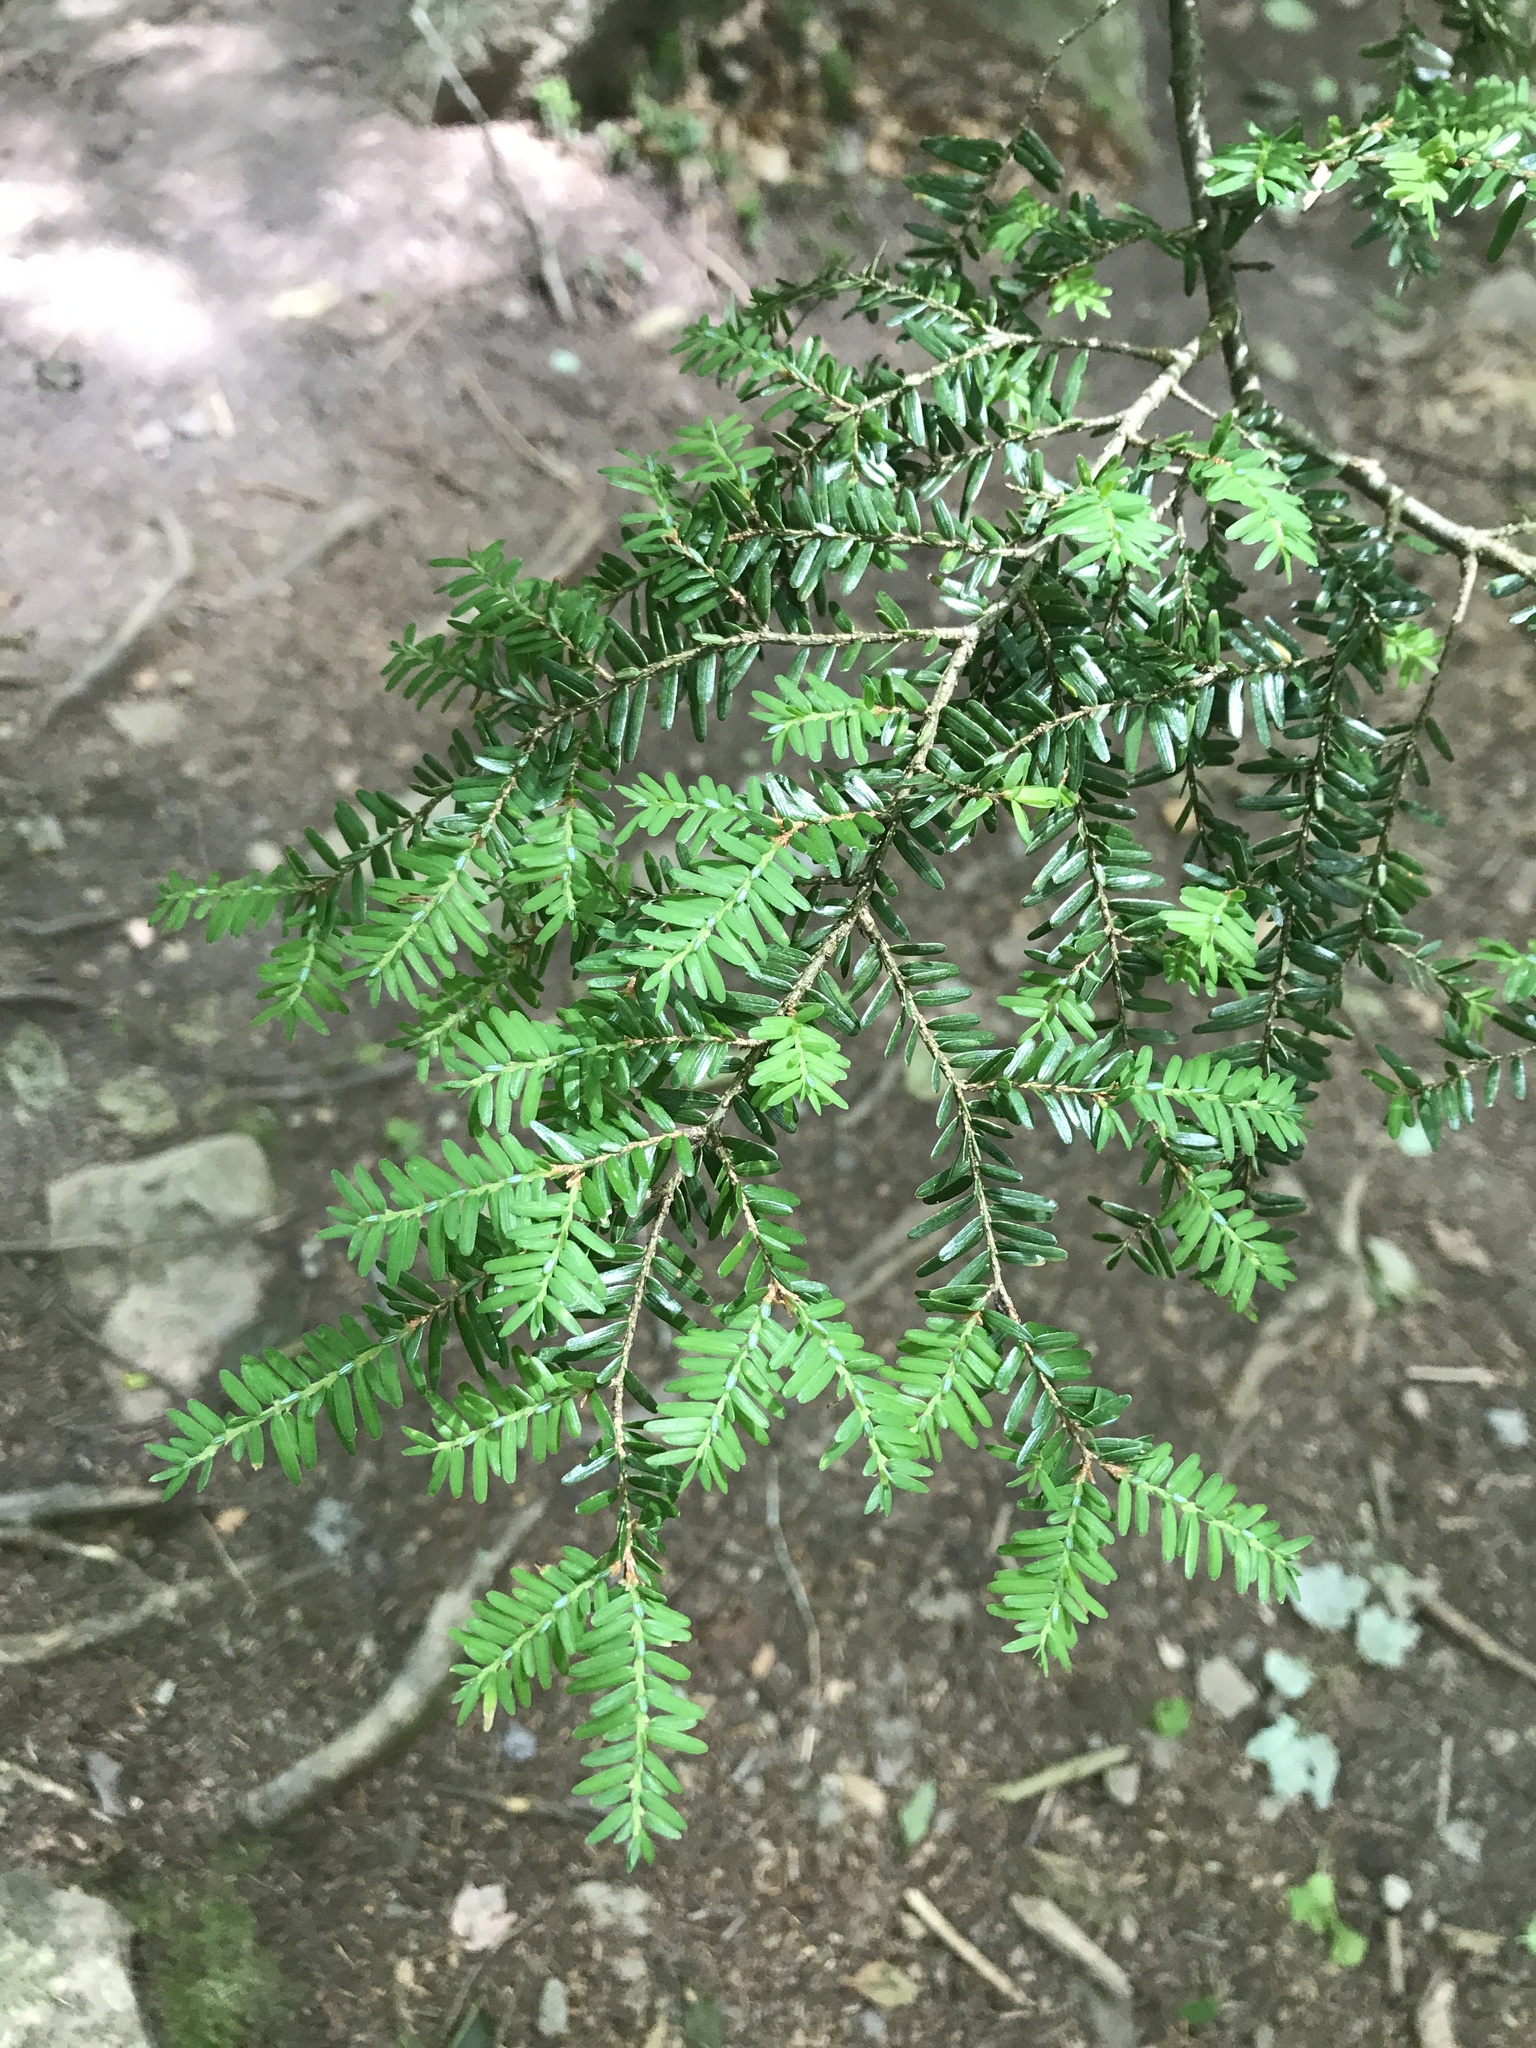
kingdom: Plantae
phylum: Tracheophyta
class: Pinopsida
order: Pinales
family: Pinaceae
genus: Tsuga
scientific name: Tsuga canadensis
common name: Eastern hemlock
